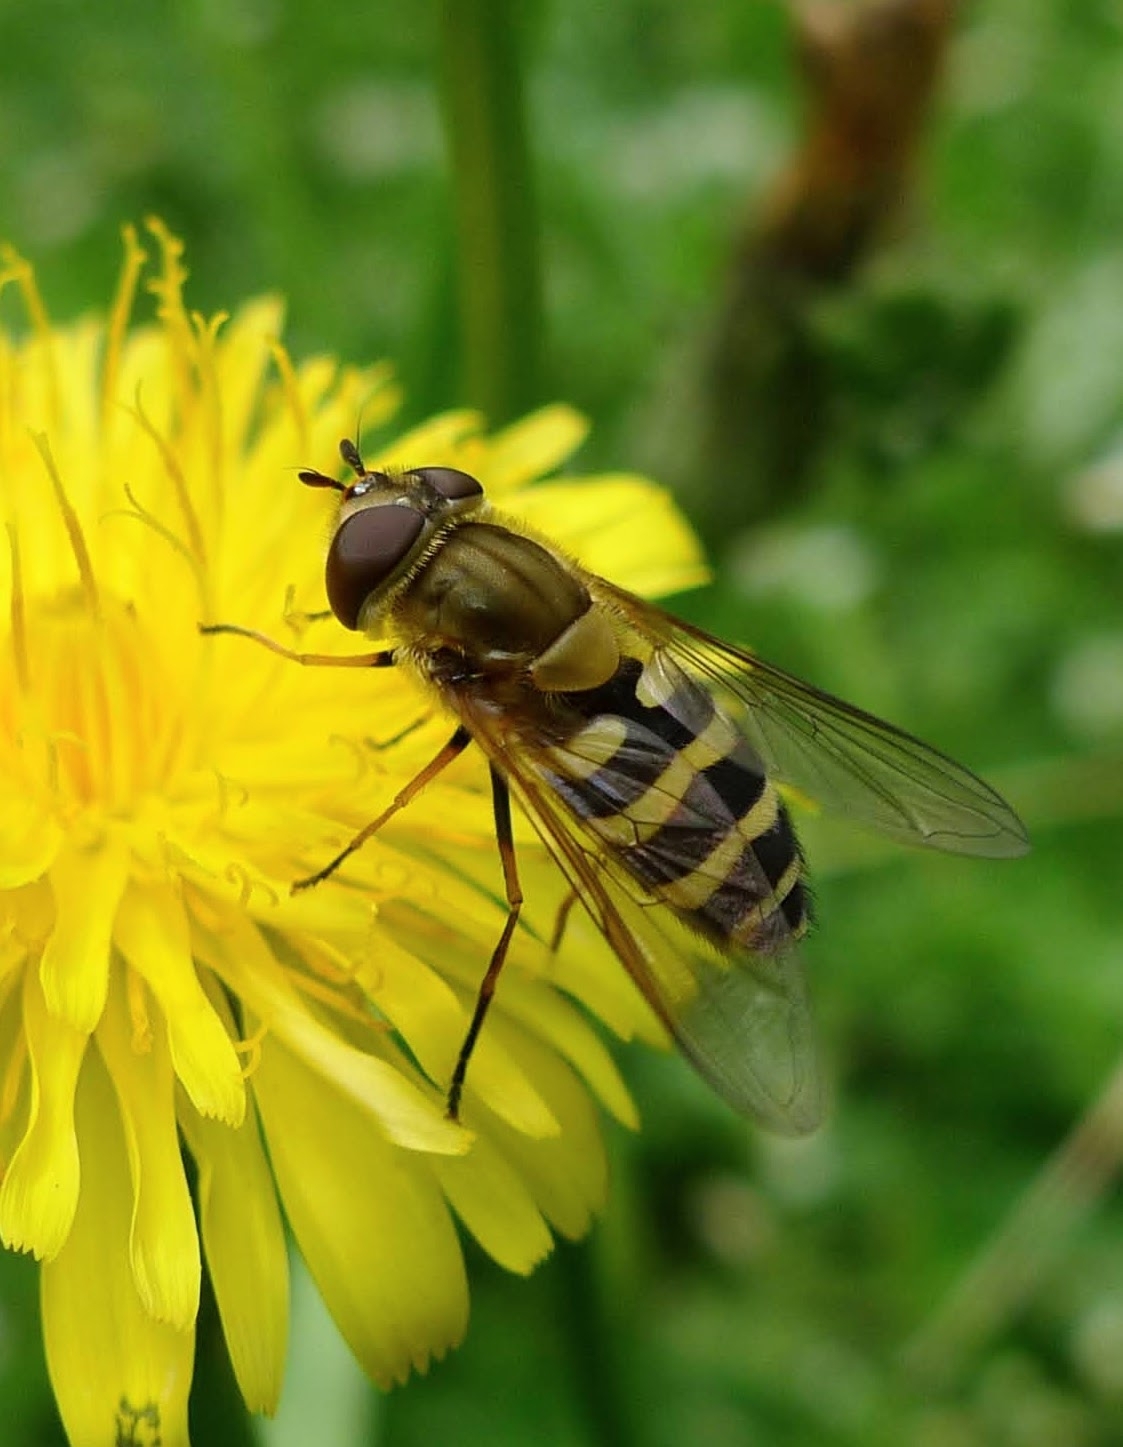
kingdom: Animalia
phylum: Arthropoda
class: Insecta
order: Diptera
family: Syrphidae
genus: Syrphus
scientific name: Syrphus
